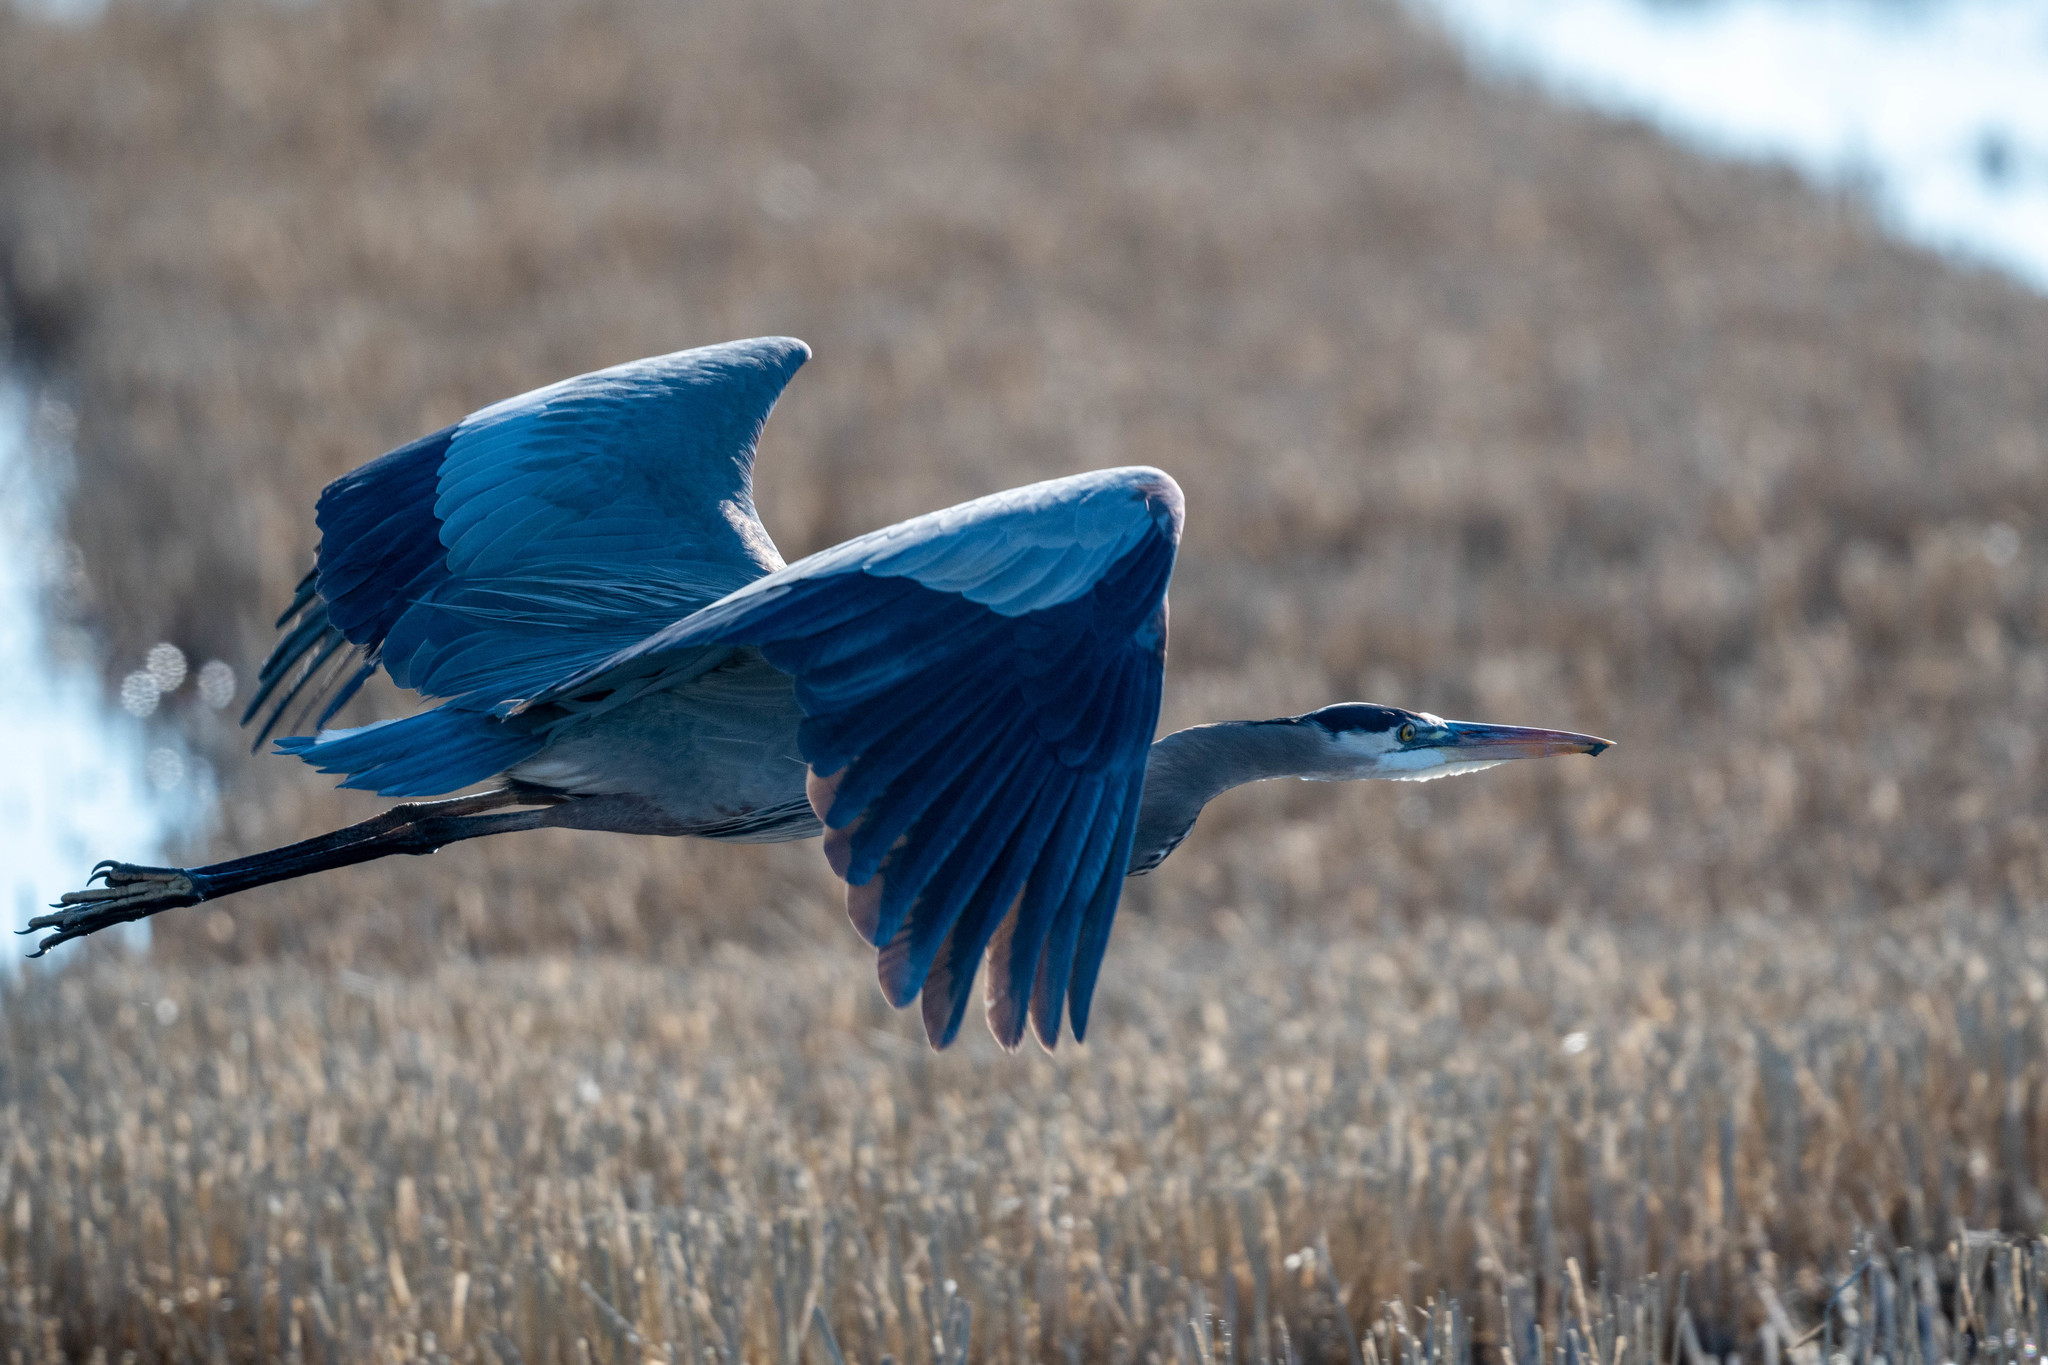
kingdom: Animalia
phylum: Chordata
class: Aves
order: Pelecaniformes
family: Ardeidae
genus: Ardea
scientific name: Ardea herodias
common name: Great blue heron
